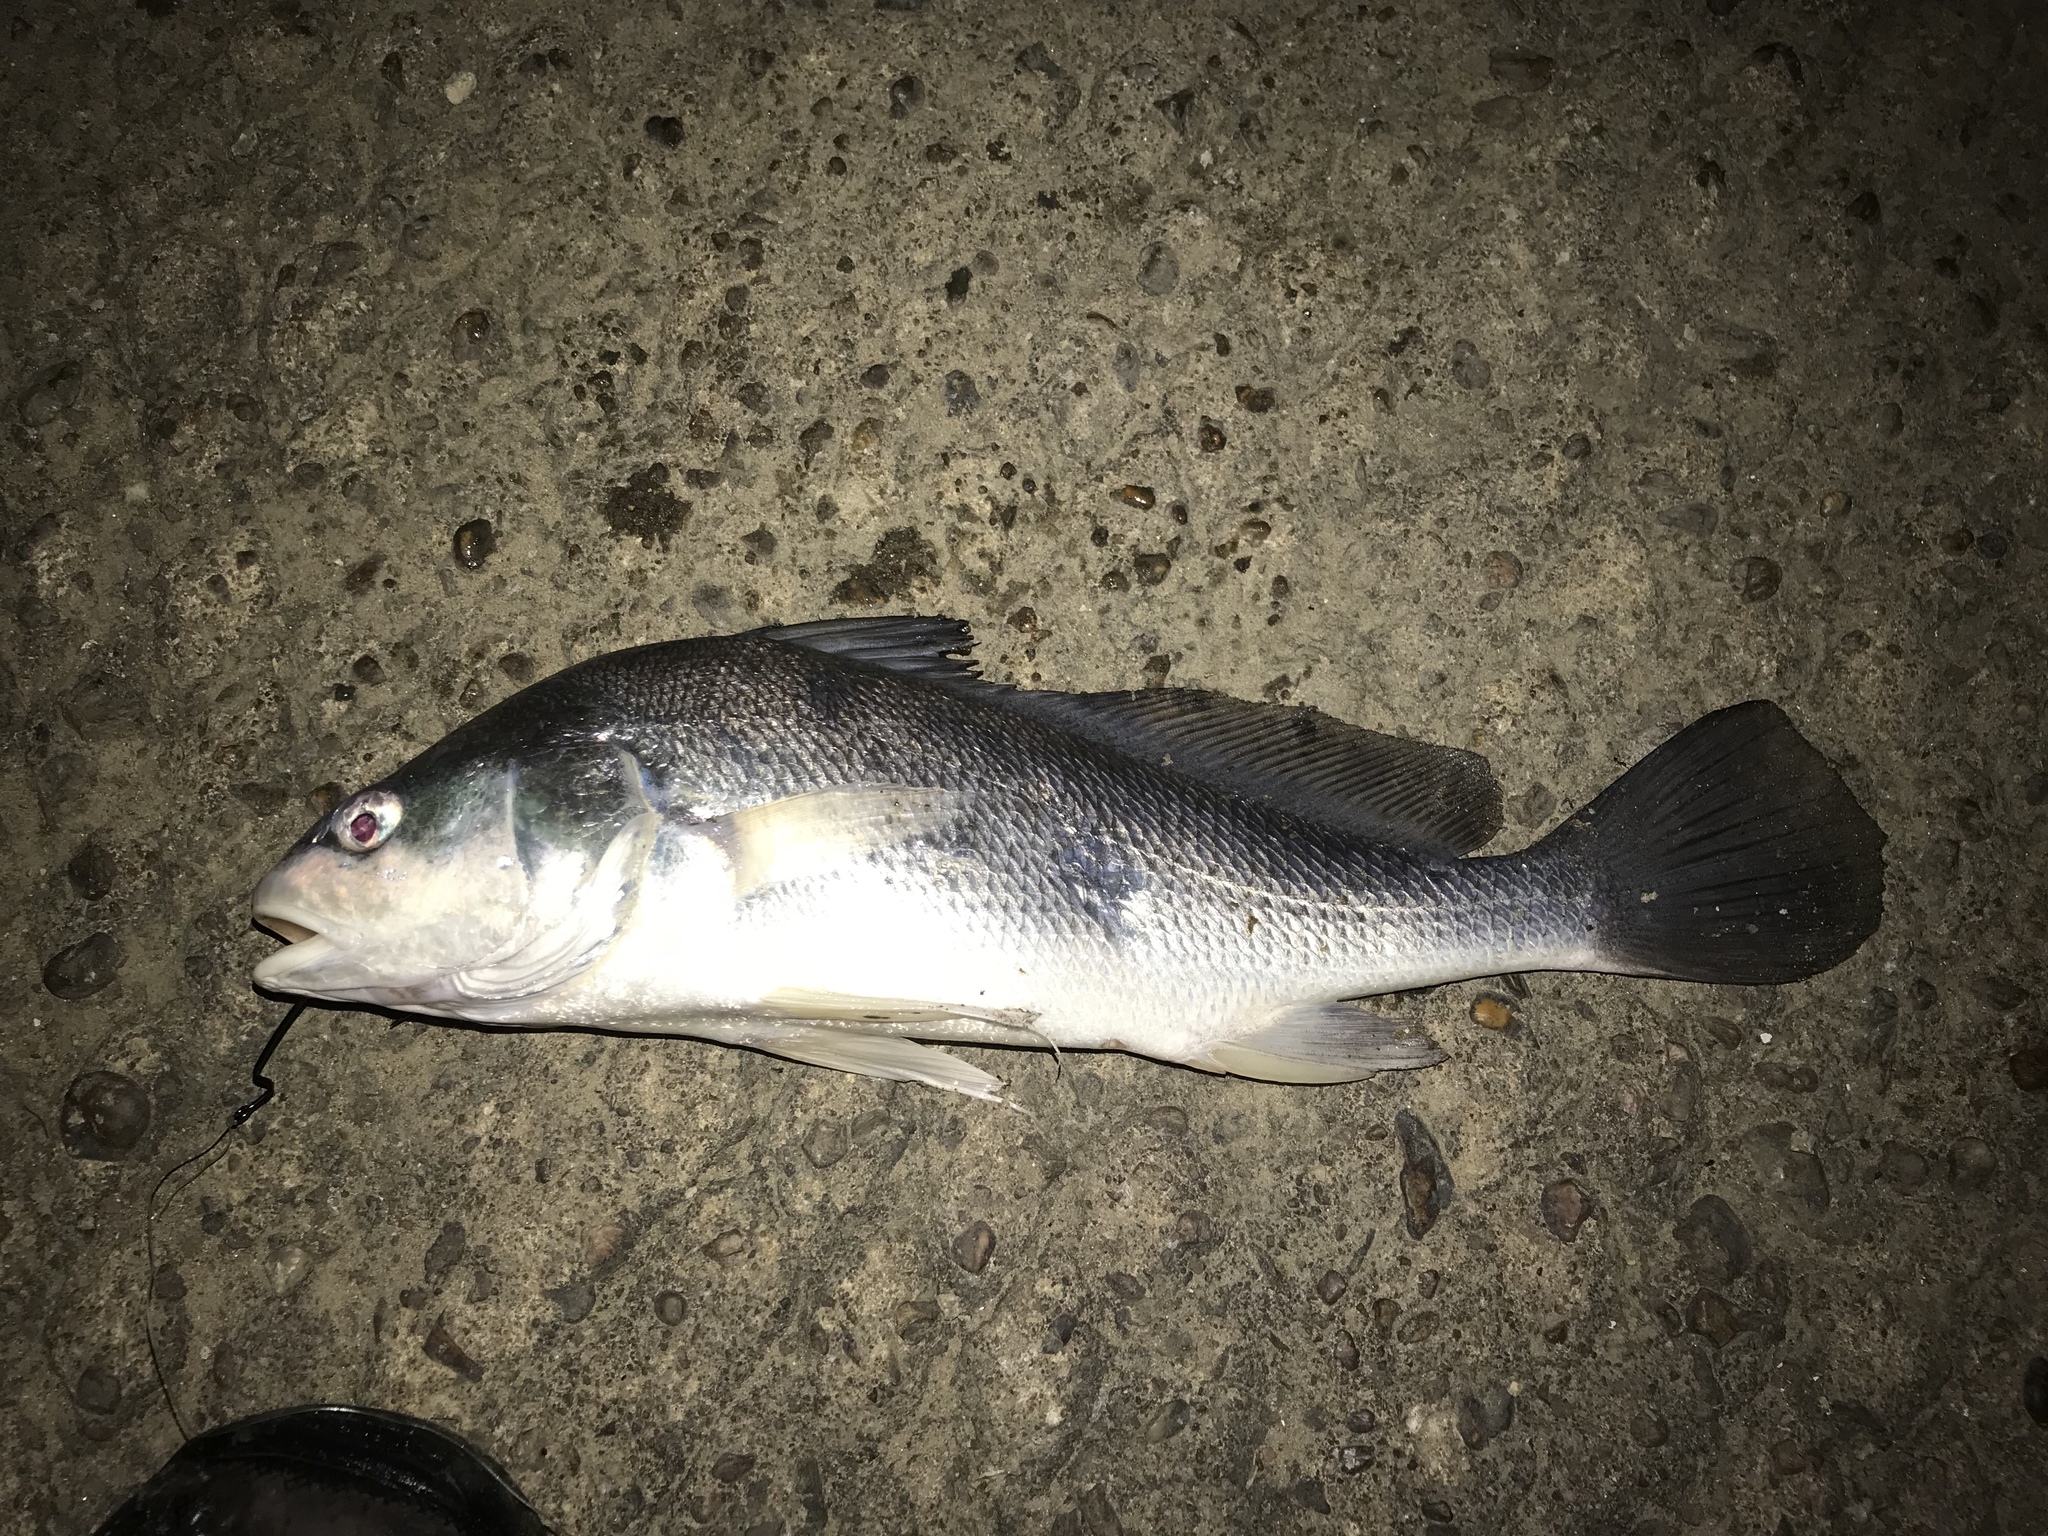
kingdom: Animalia
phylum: Chordata
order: Perciformes
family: Sciaenidae
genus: Aplodinotus
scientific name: Aplodinotus grunniens
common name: Freshwater drum
